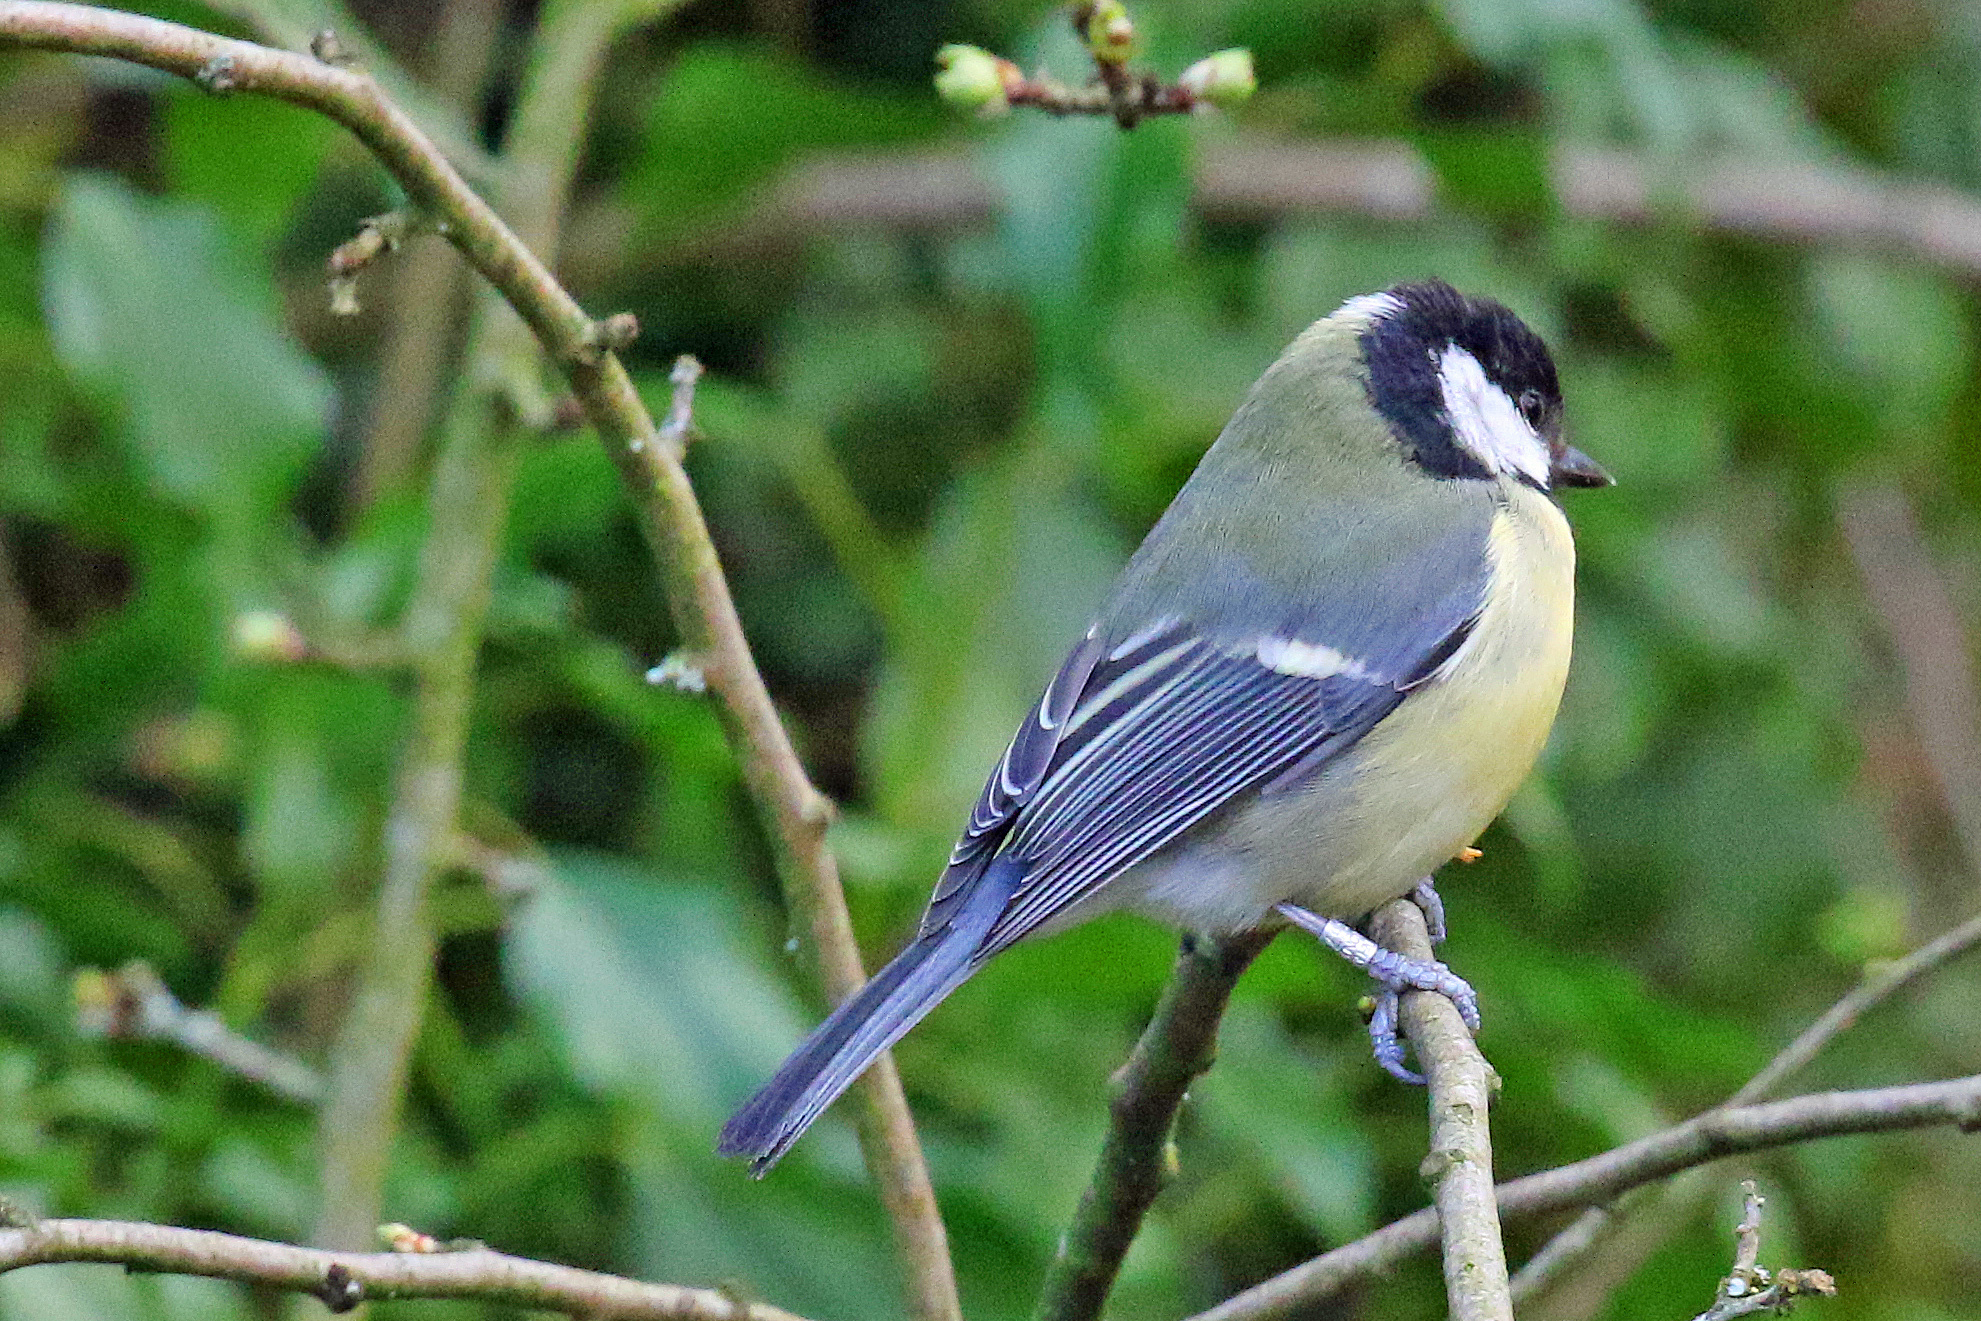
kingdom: Animalia
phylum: Chordata
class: Aves
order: Passeriformes
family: Paridae
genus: Parus
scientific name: Parus major
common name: Great tit
